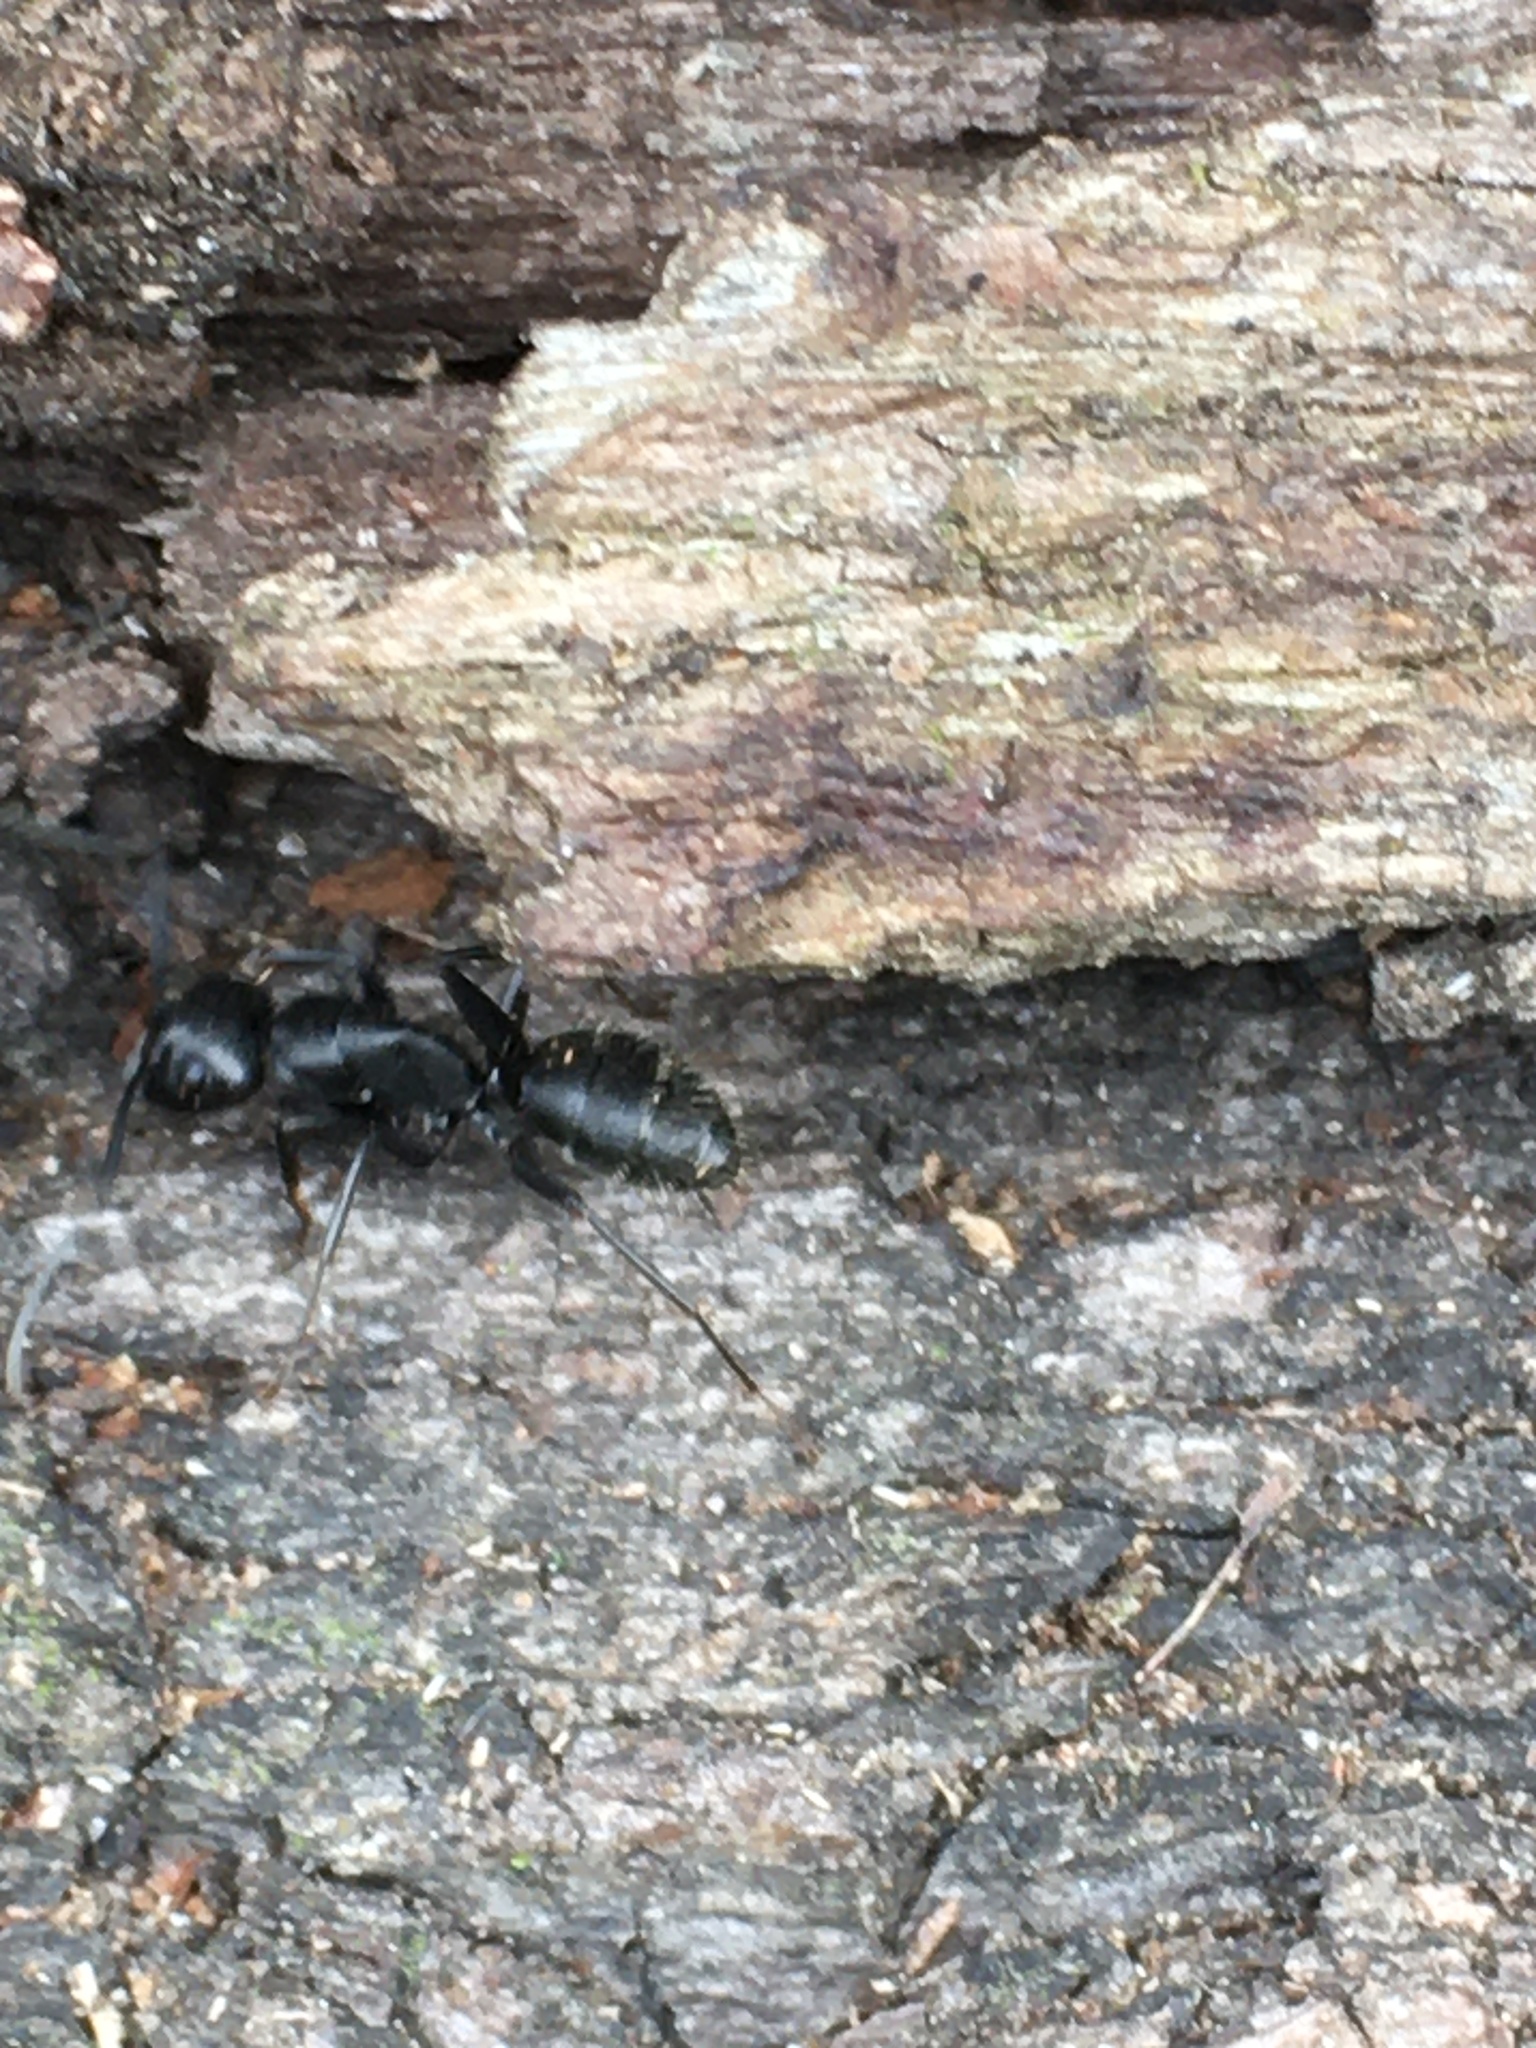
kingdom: Animalia
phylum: Arthropoda
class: Insecta
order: Hymenoptera
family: Formicidae
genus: Camponotus
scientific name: Camponotus vagus
